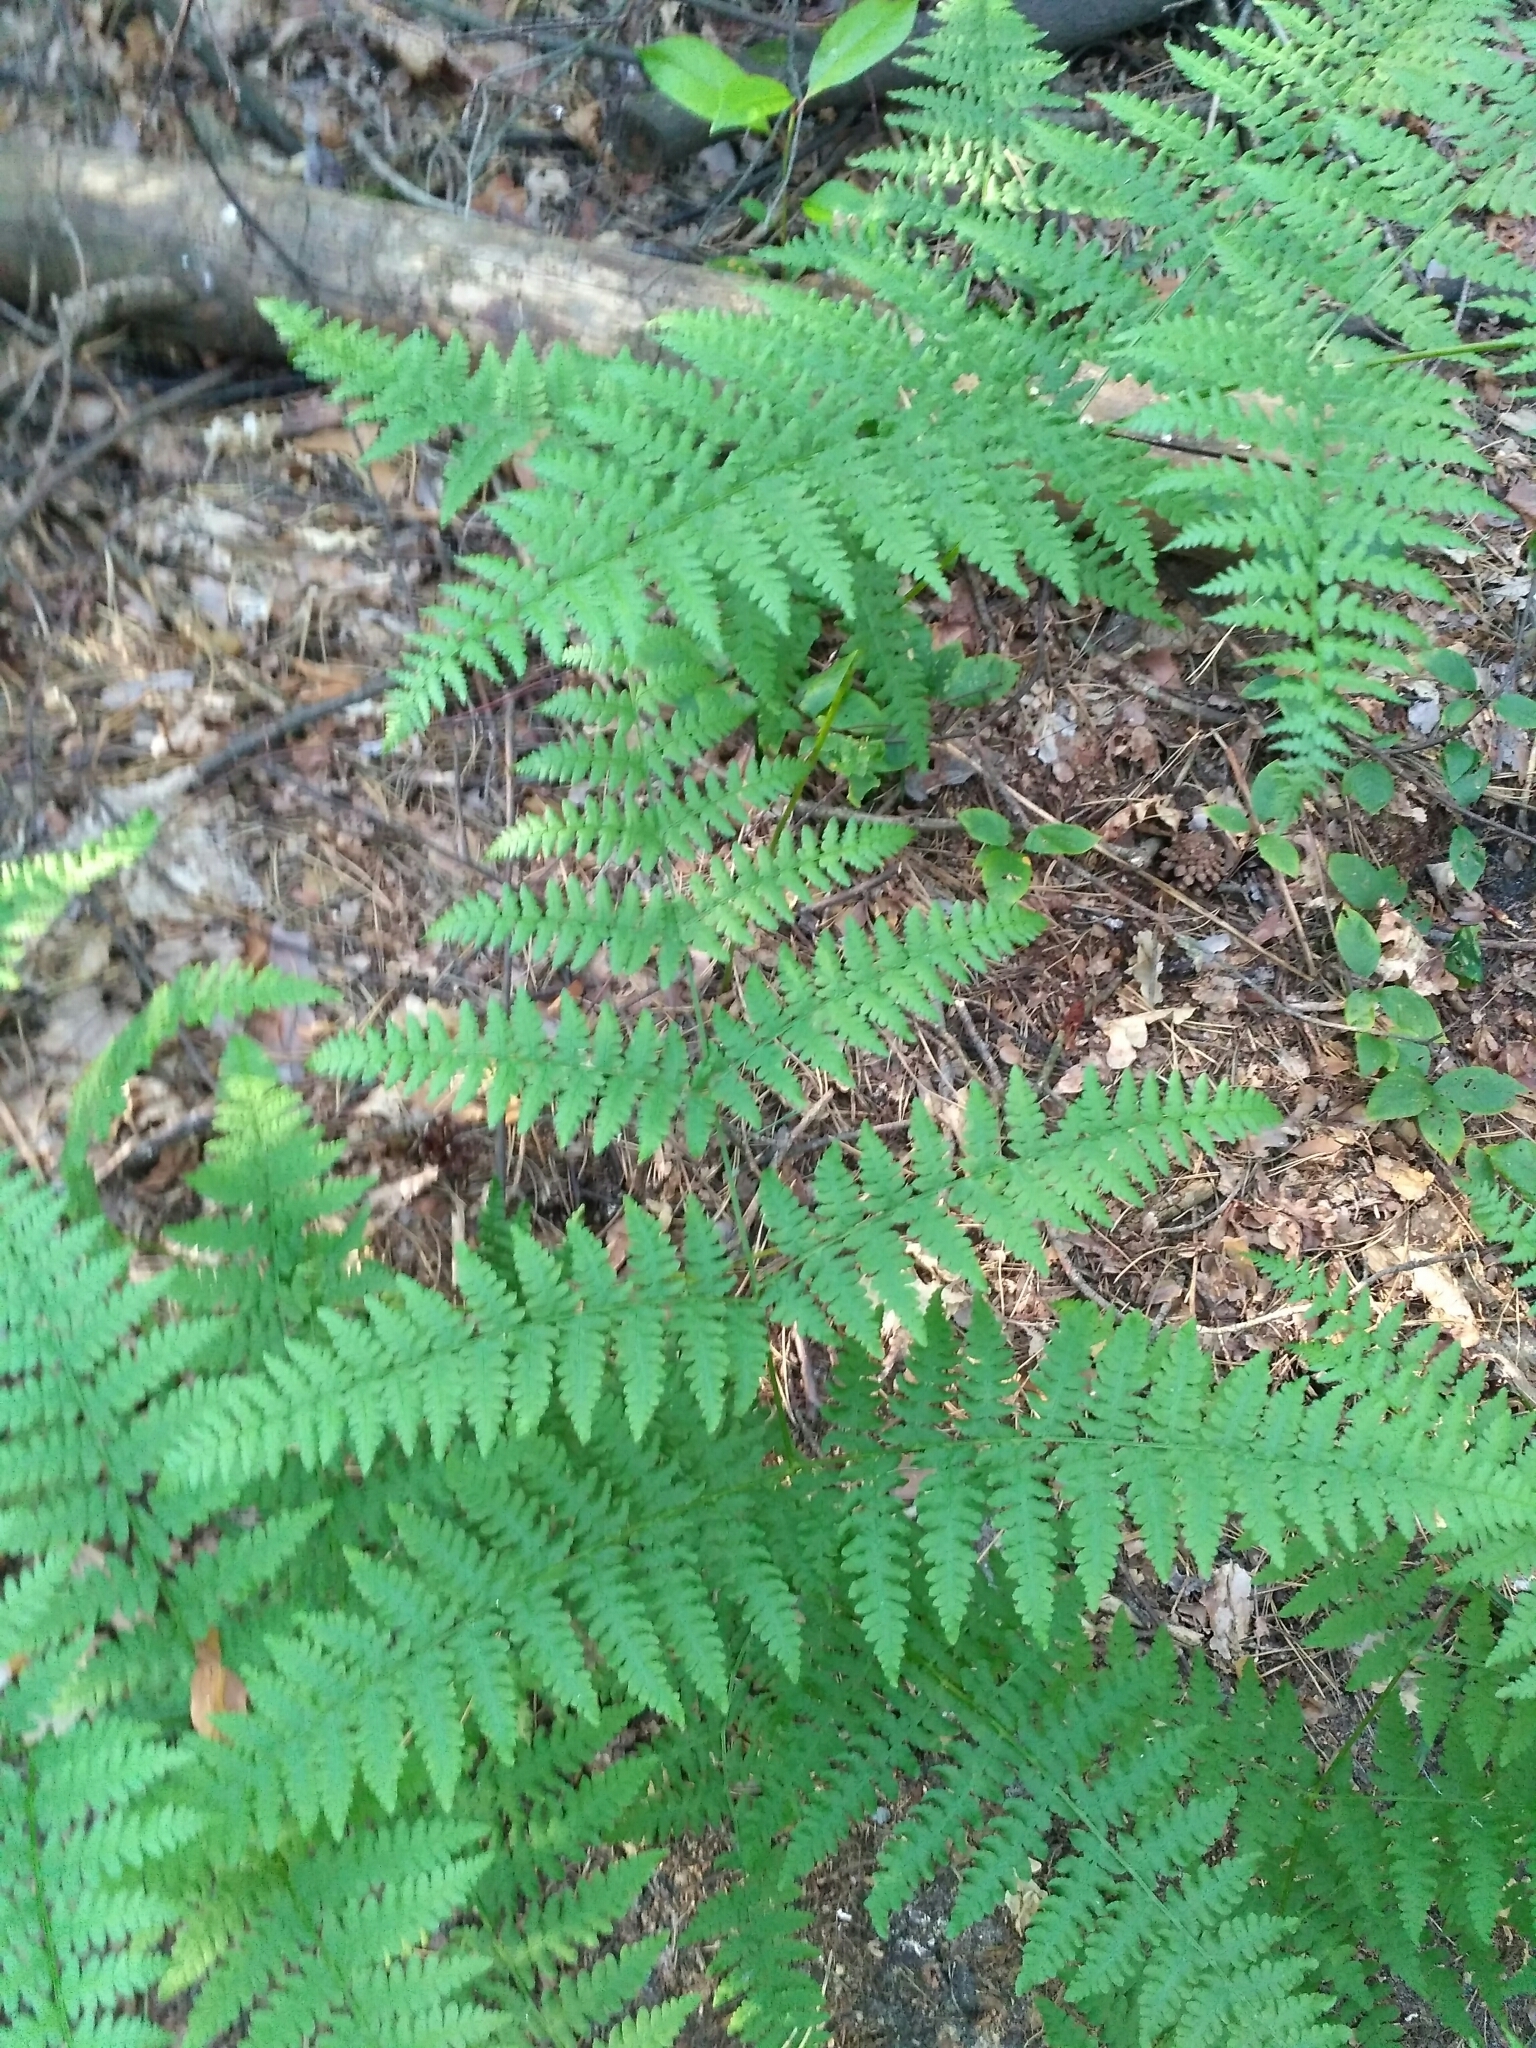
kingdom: Plantae
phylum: Tracheophyta
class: Polypodiopsida
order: Polypodiales
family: Dennstaedtiaceae
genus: Pteridium
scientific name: Pteridium aquilinum
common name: Bracken
